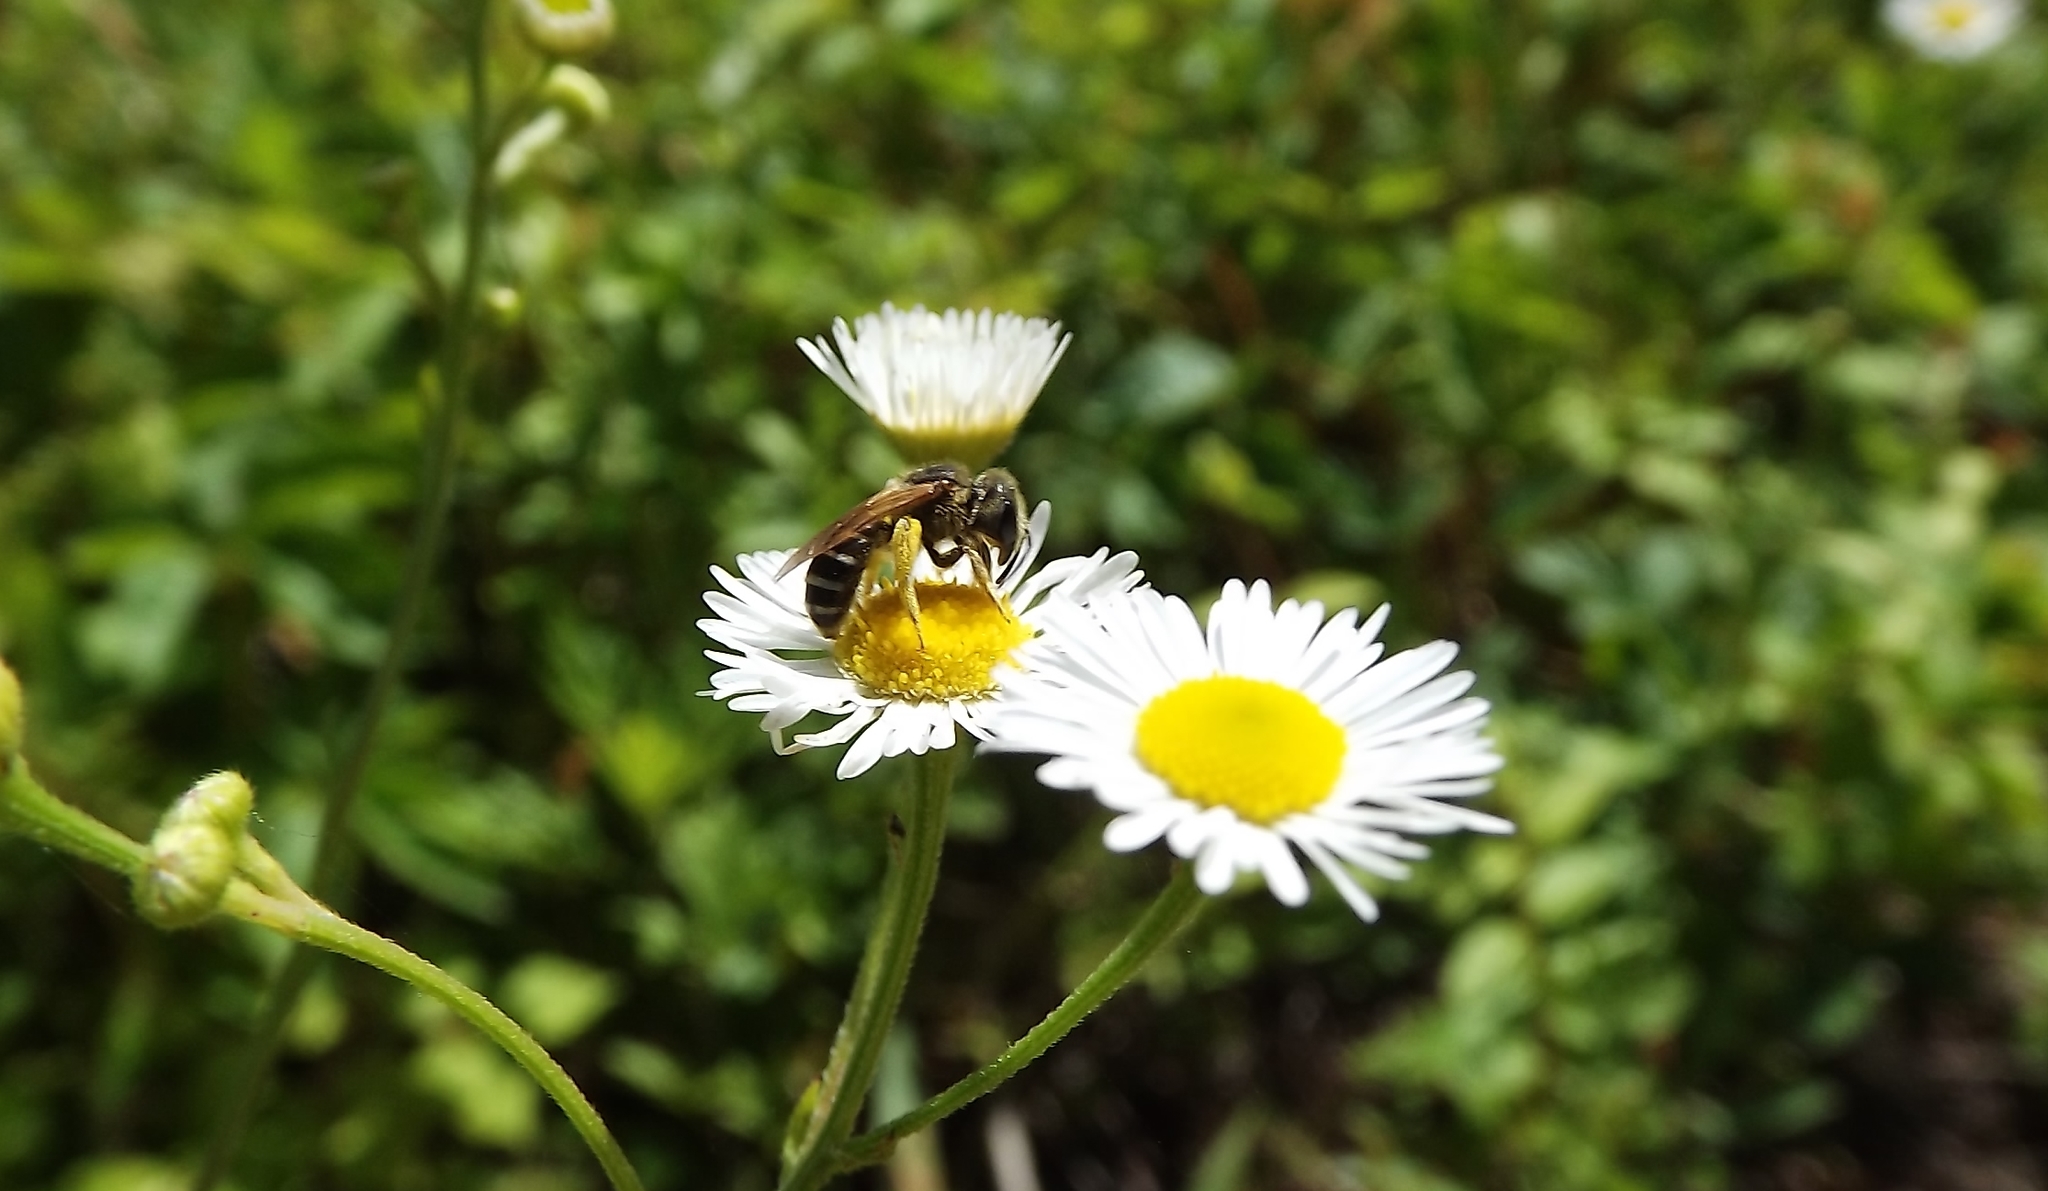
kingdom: Animalia
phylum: Arthropoda
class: Insecta
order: Hymenoptera
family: Halictidae
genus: Halictus
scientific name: Halictus ligatus
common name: Ligated furrow bee
